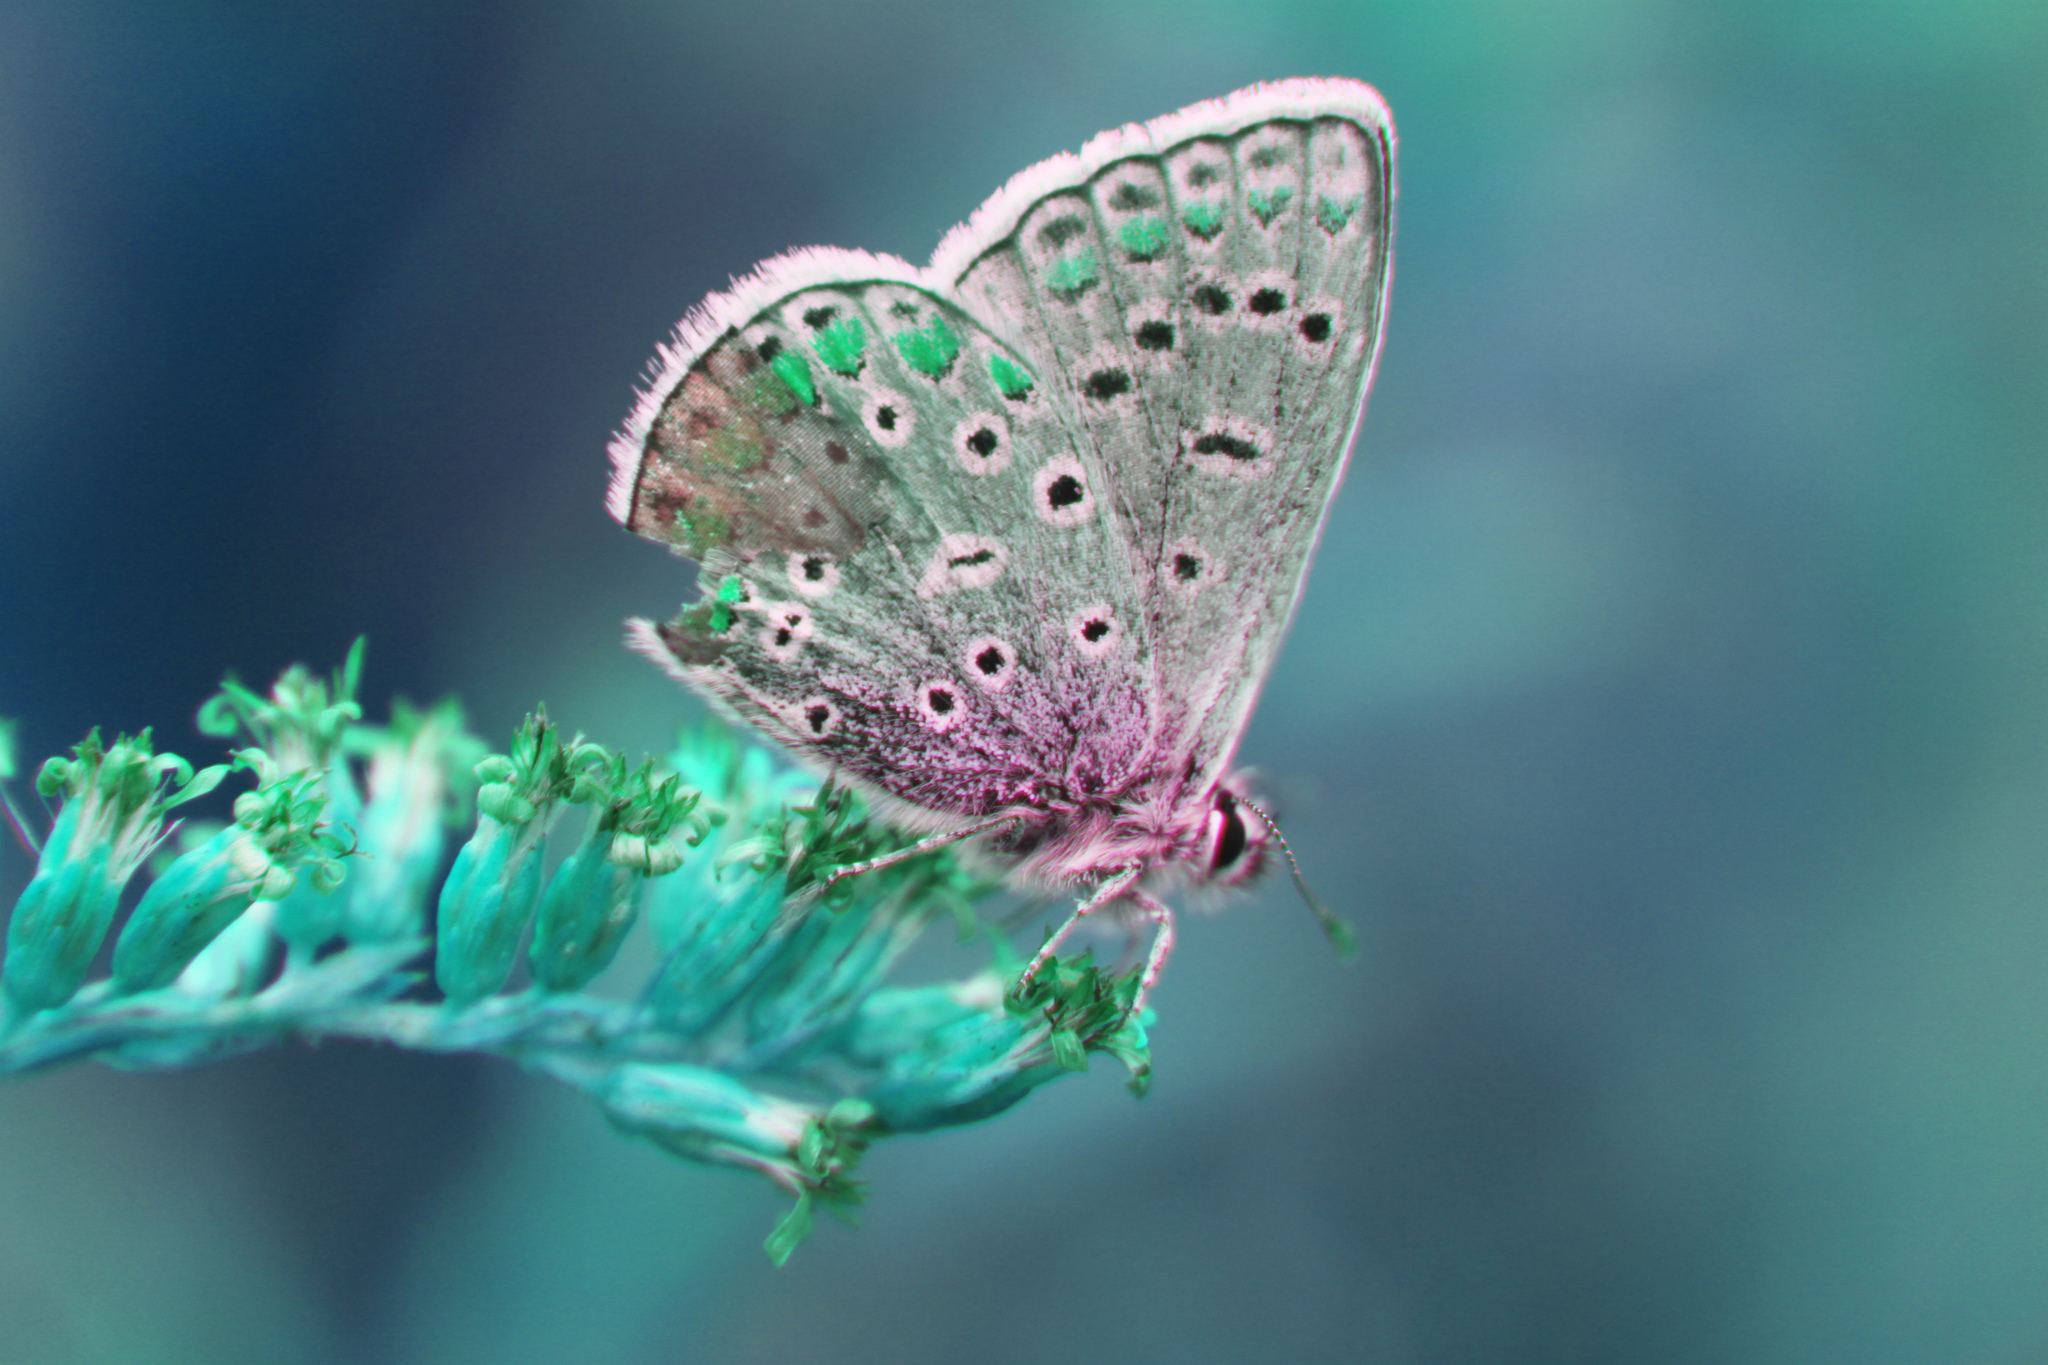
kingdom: Animalia
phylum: Arthropoda
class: Insecta
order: Lepidoptera
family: Lycaenidae
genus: Polyommatus
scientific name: Polyommatus icarus
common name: Common blue
